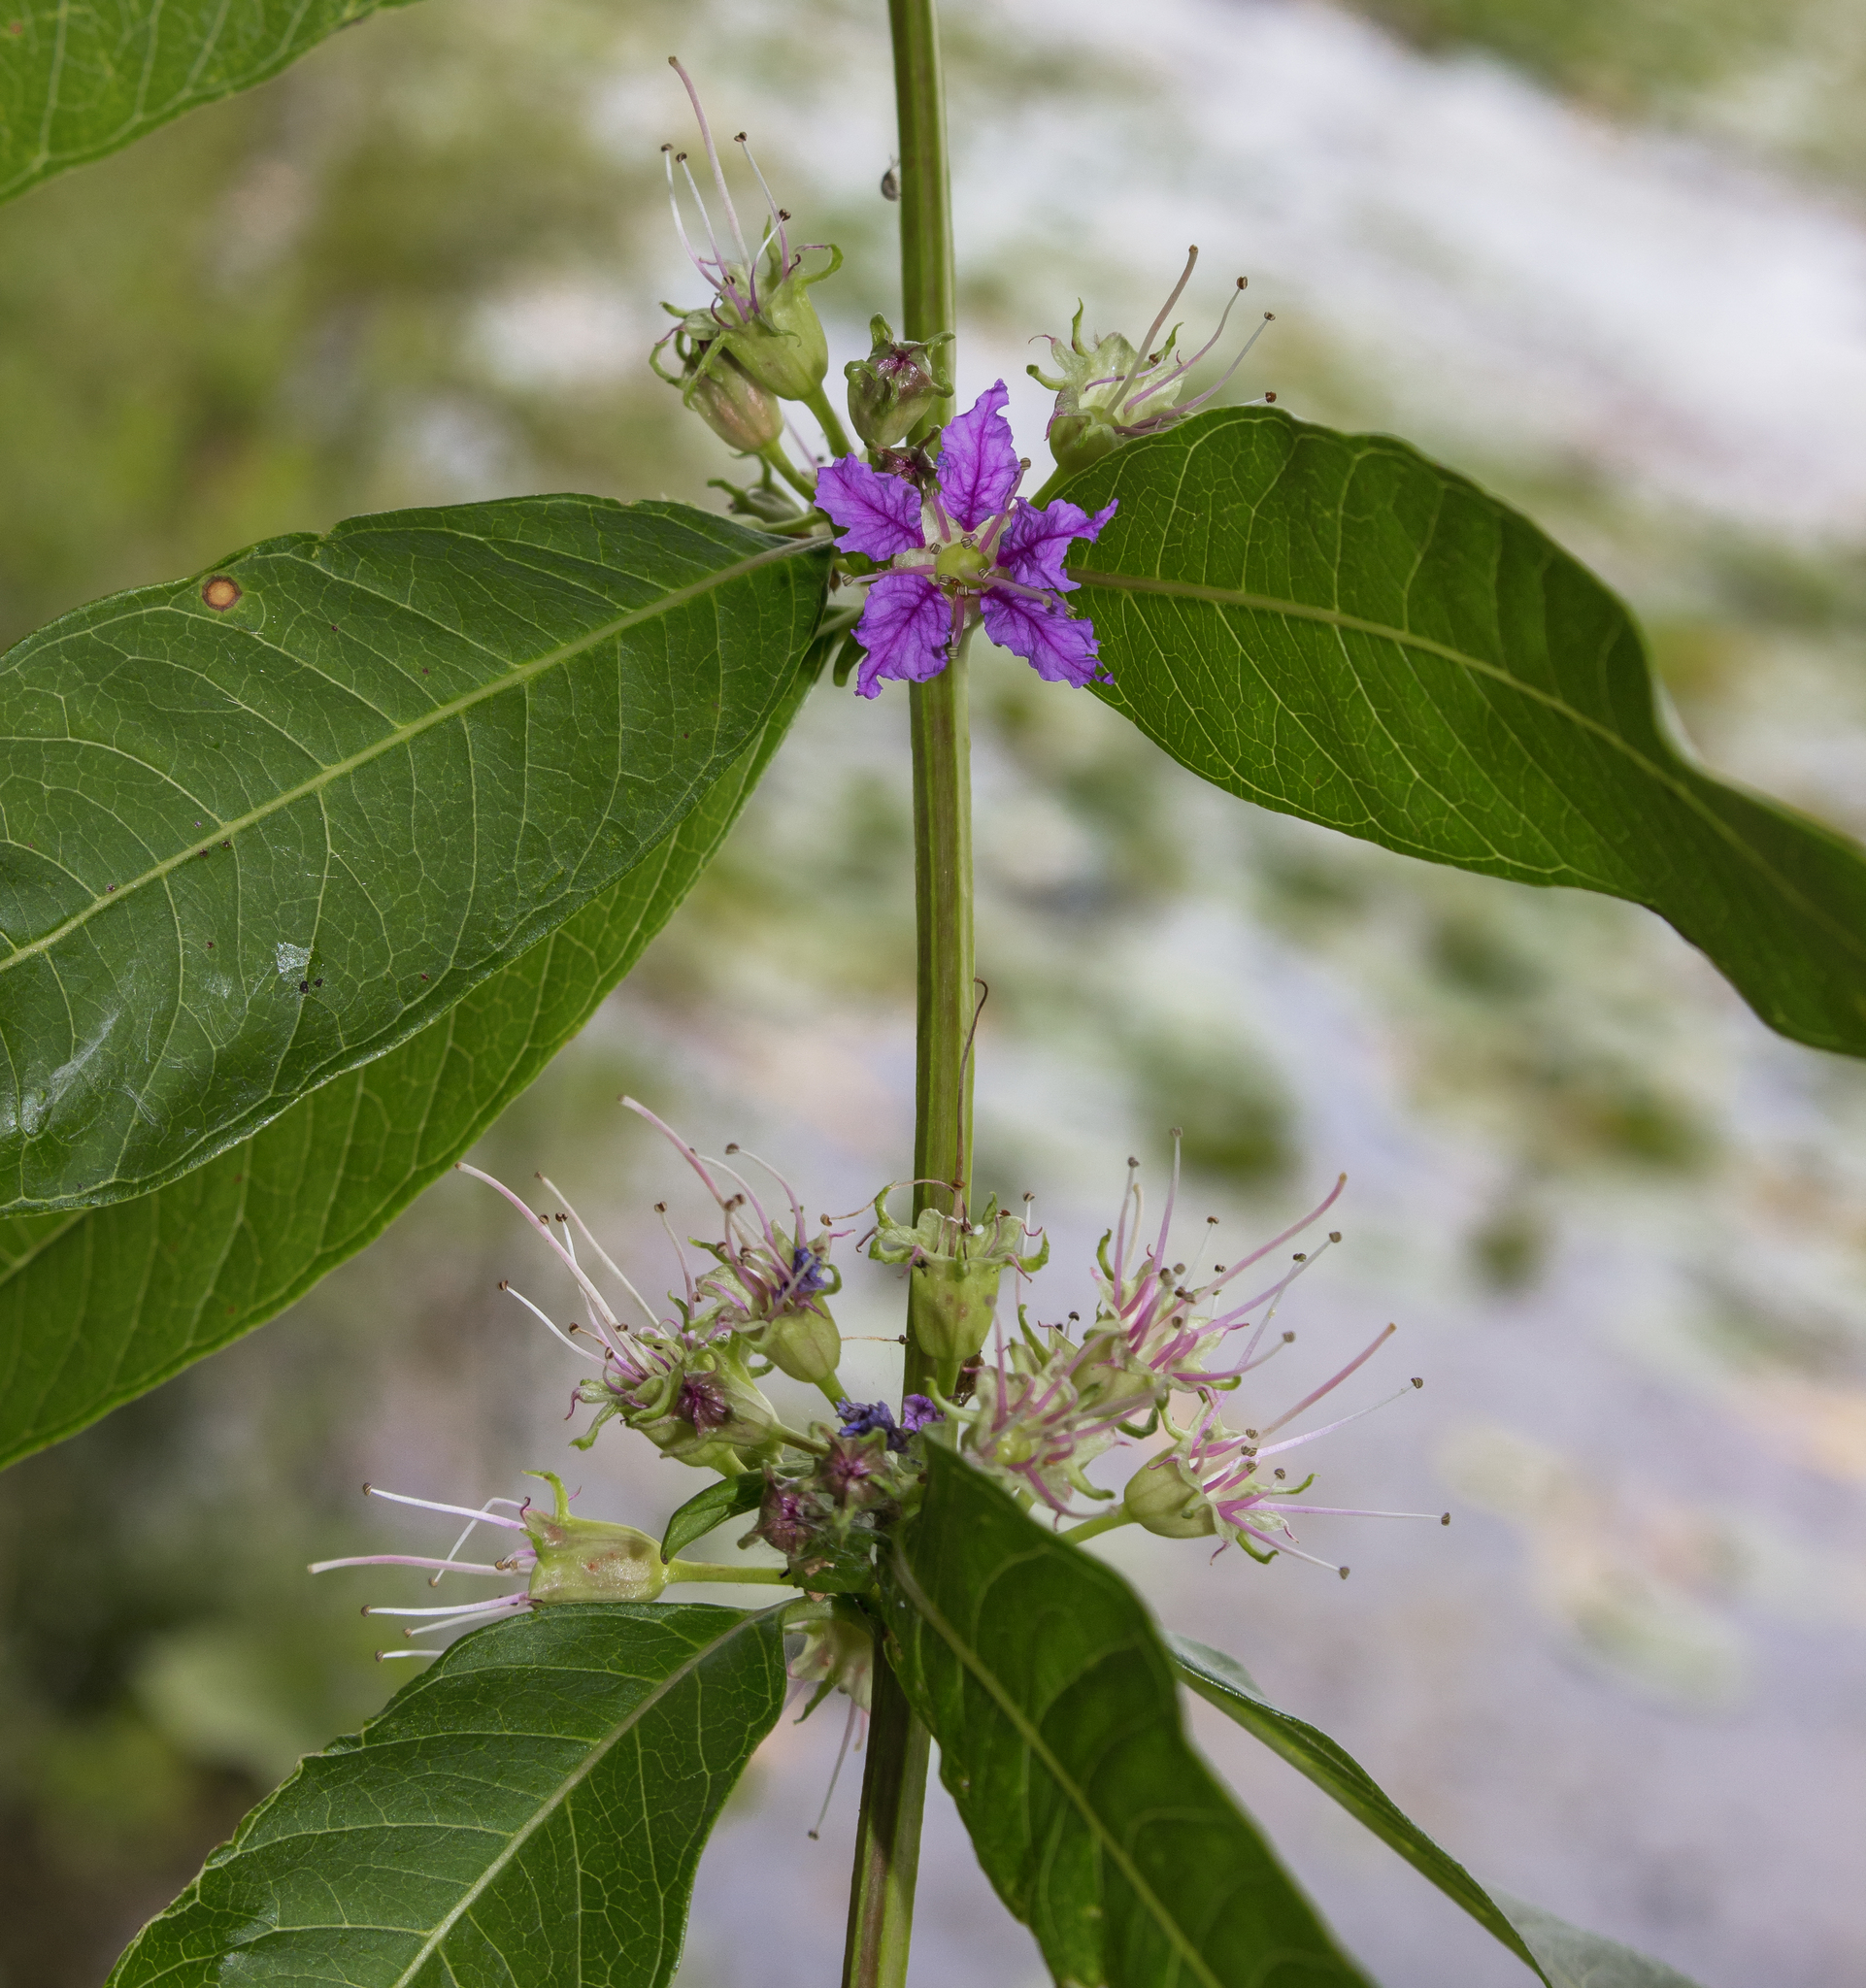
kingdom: Plantae
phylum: Tracheophyta
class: Magnoliopsida
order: Myrtales
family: Lythraceae
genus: Decodon
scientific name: Decodon verticillatus
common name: Hairy swamp loosestrife
